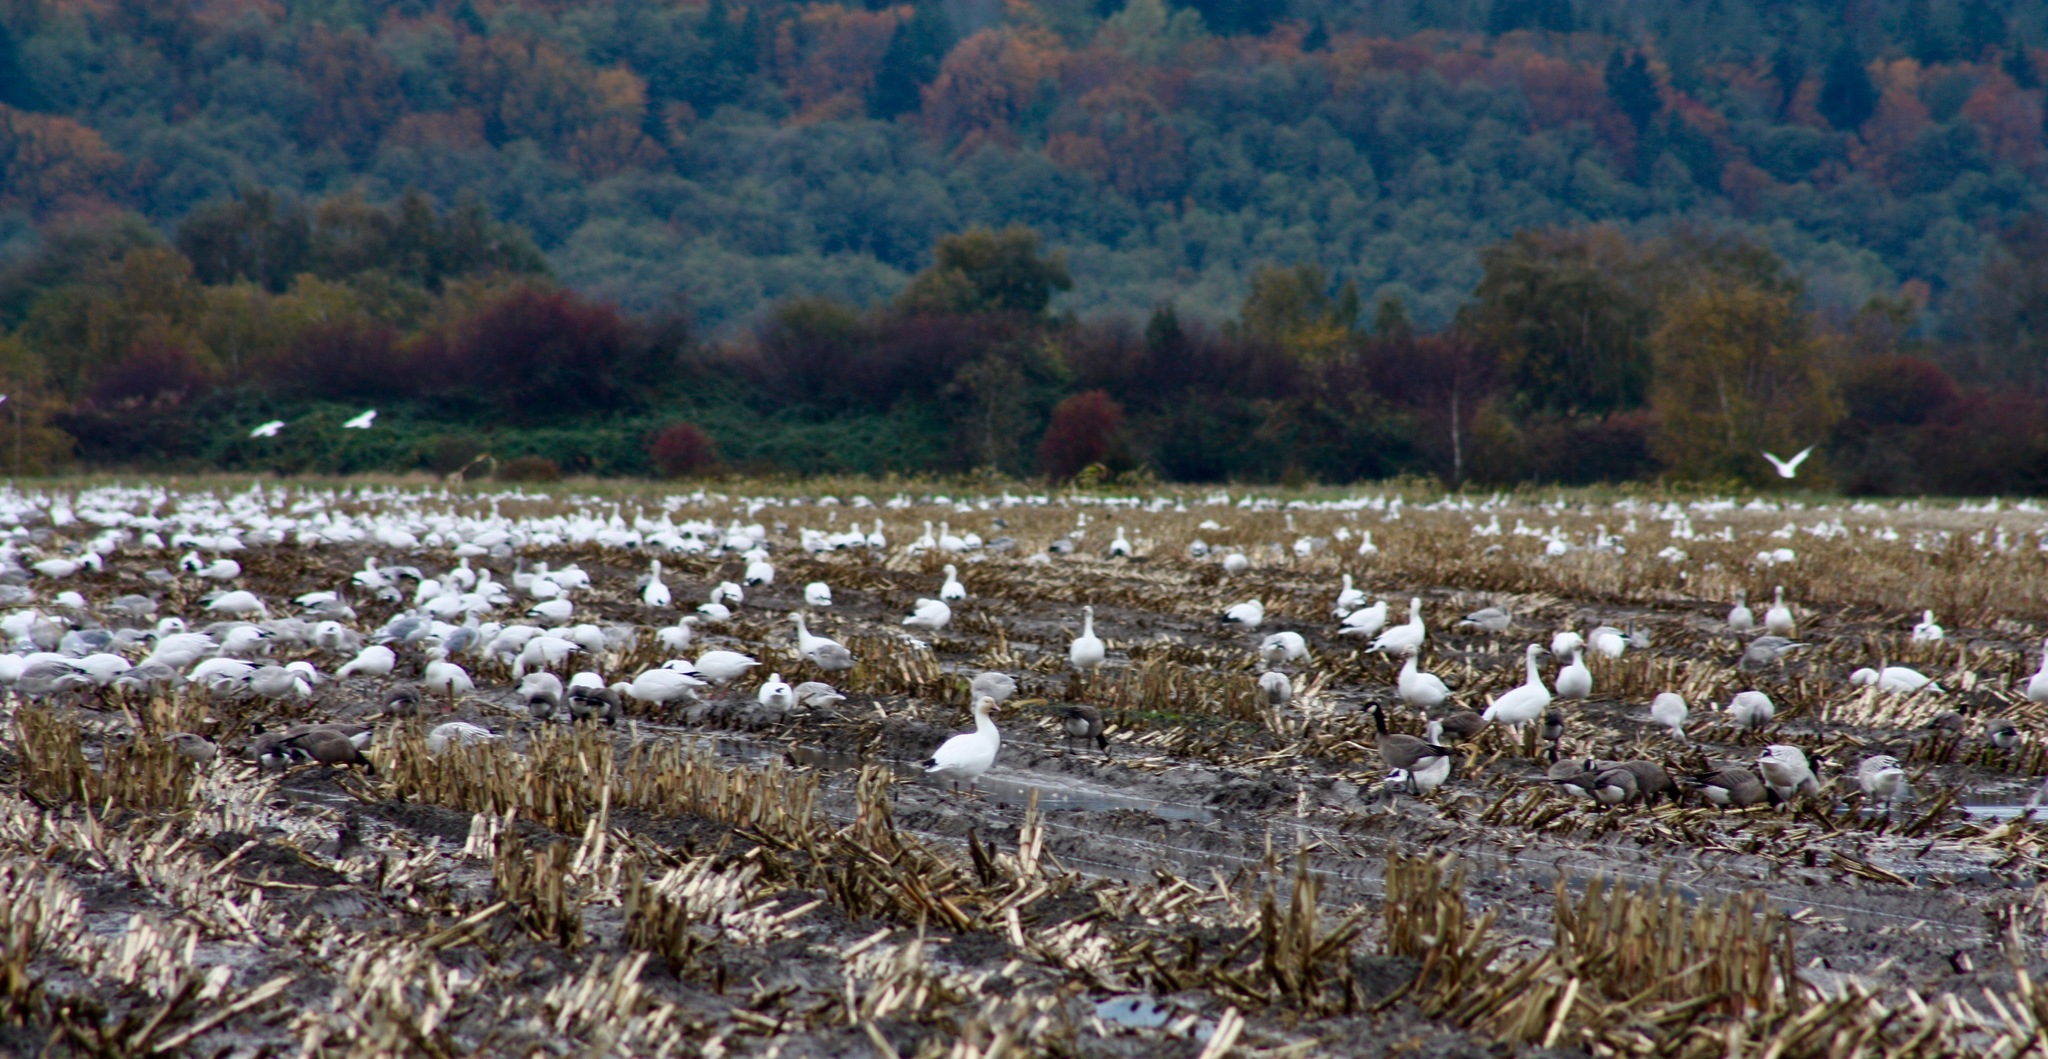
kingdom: Animalia
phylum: Chordata
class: Aves
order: Anseriformes
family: Anatidae
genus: Anser
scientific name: Anser caerulescens
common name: Snow goose
